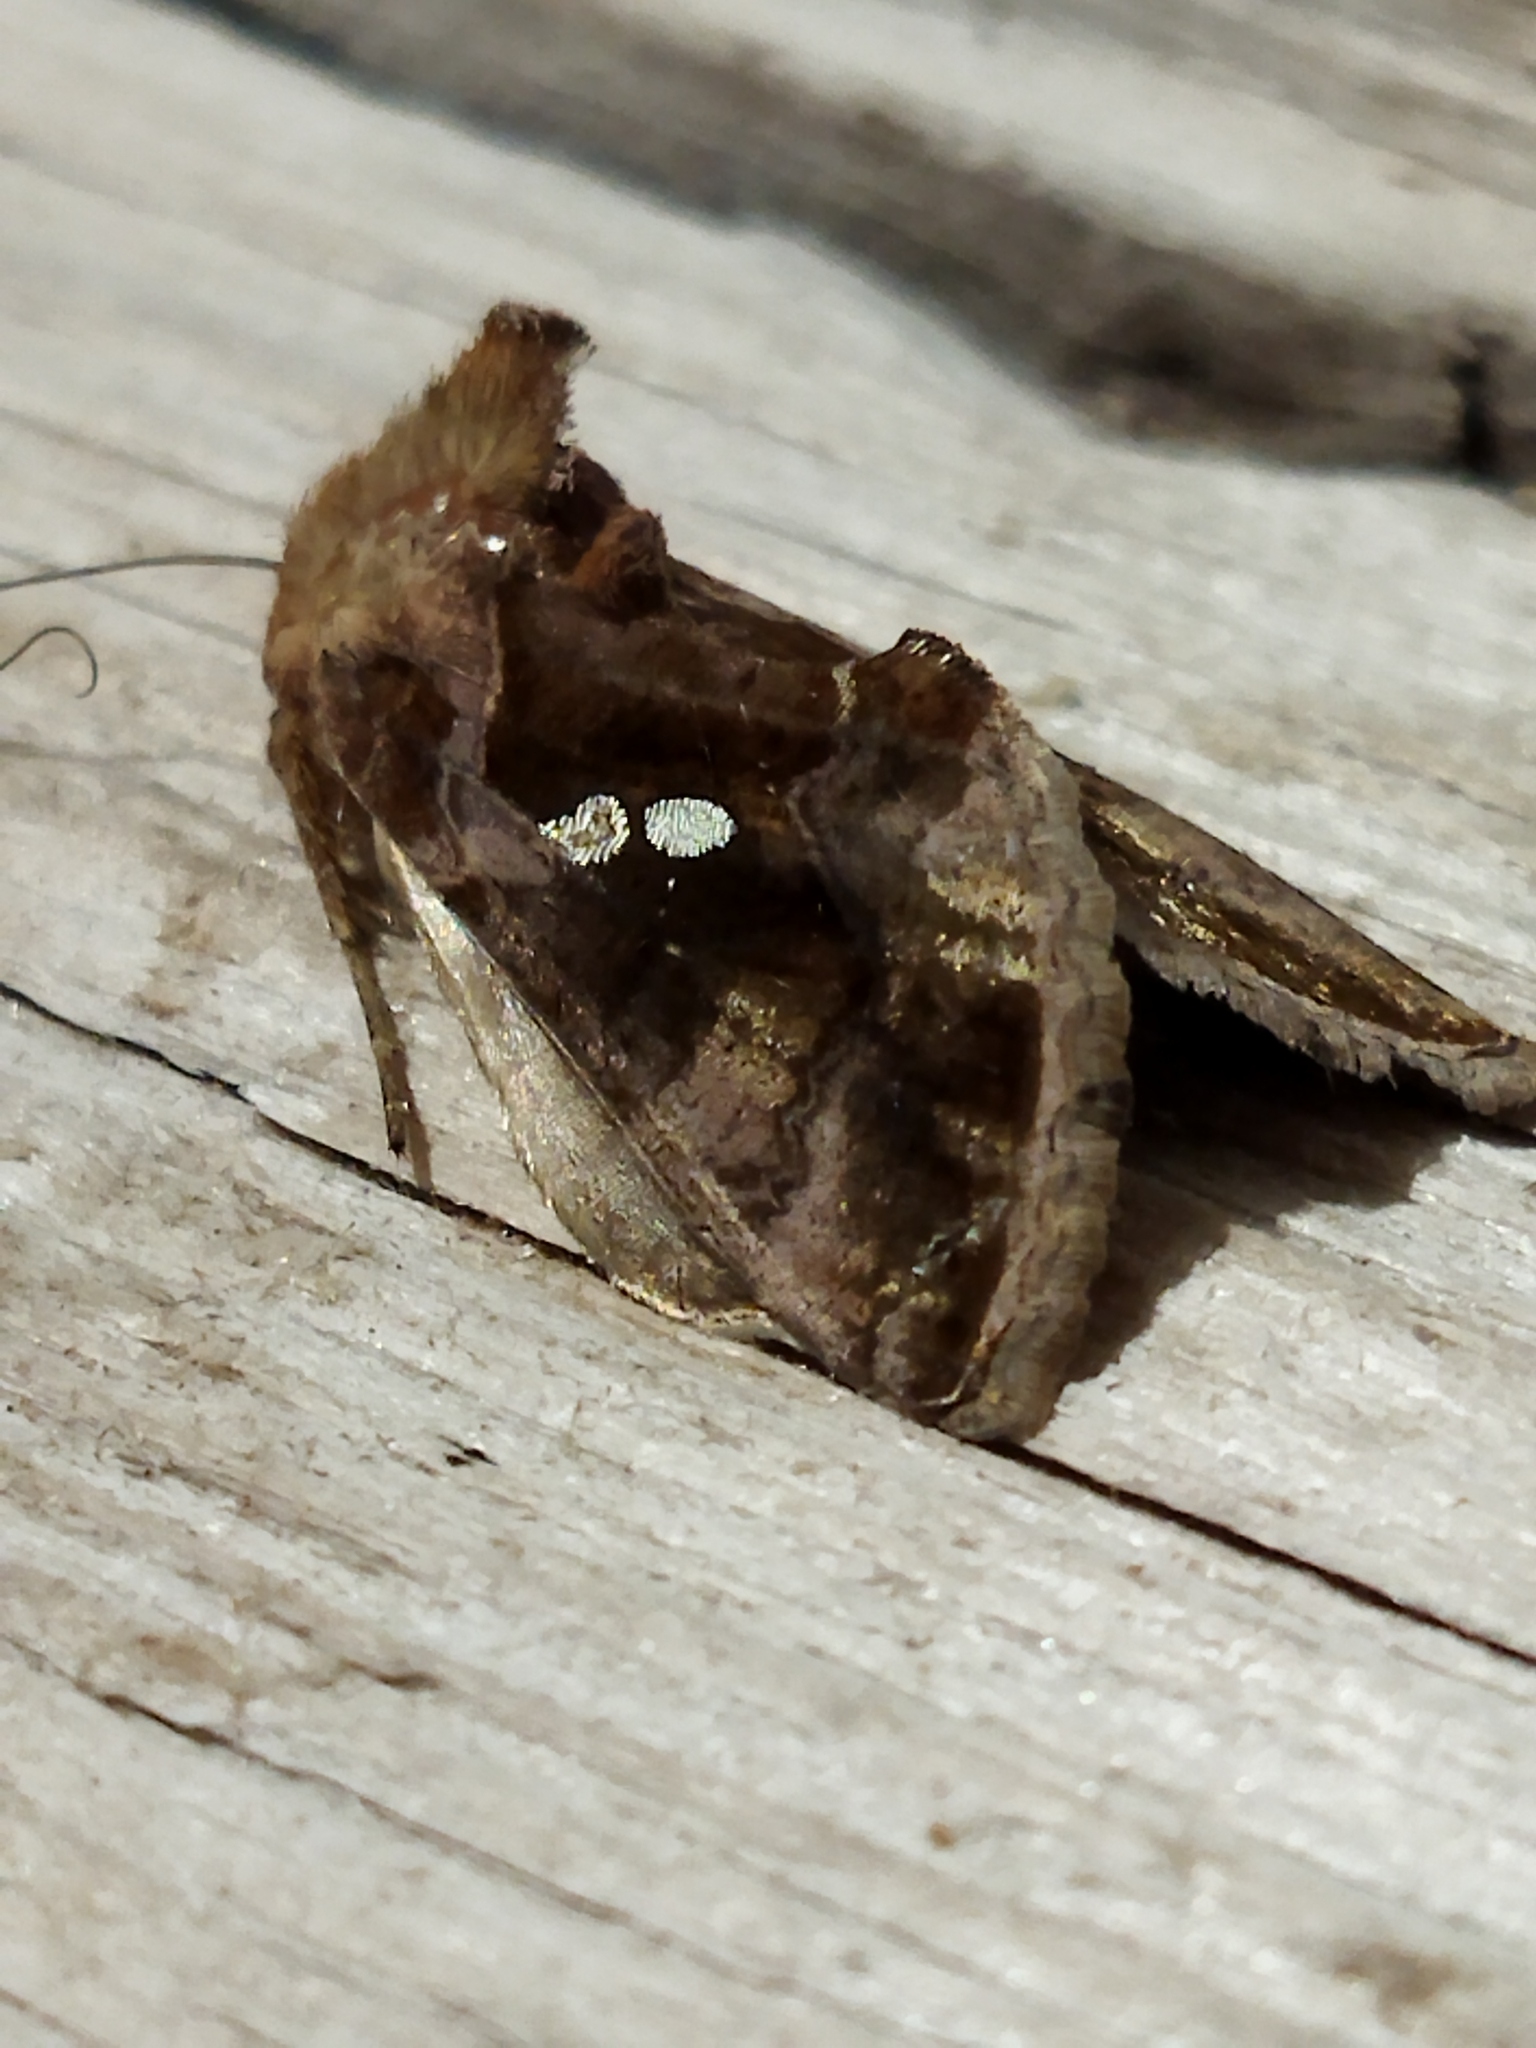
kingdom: Animalia
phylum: Arthropoda
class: Insecta
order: Lepidoptera
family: Noctuidae
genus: Chrysodeixis
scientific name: Chrysodeixis chalcites
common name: Golden twin-spot
